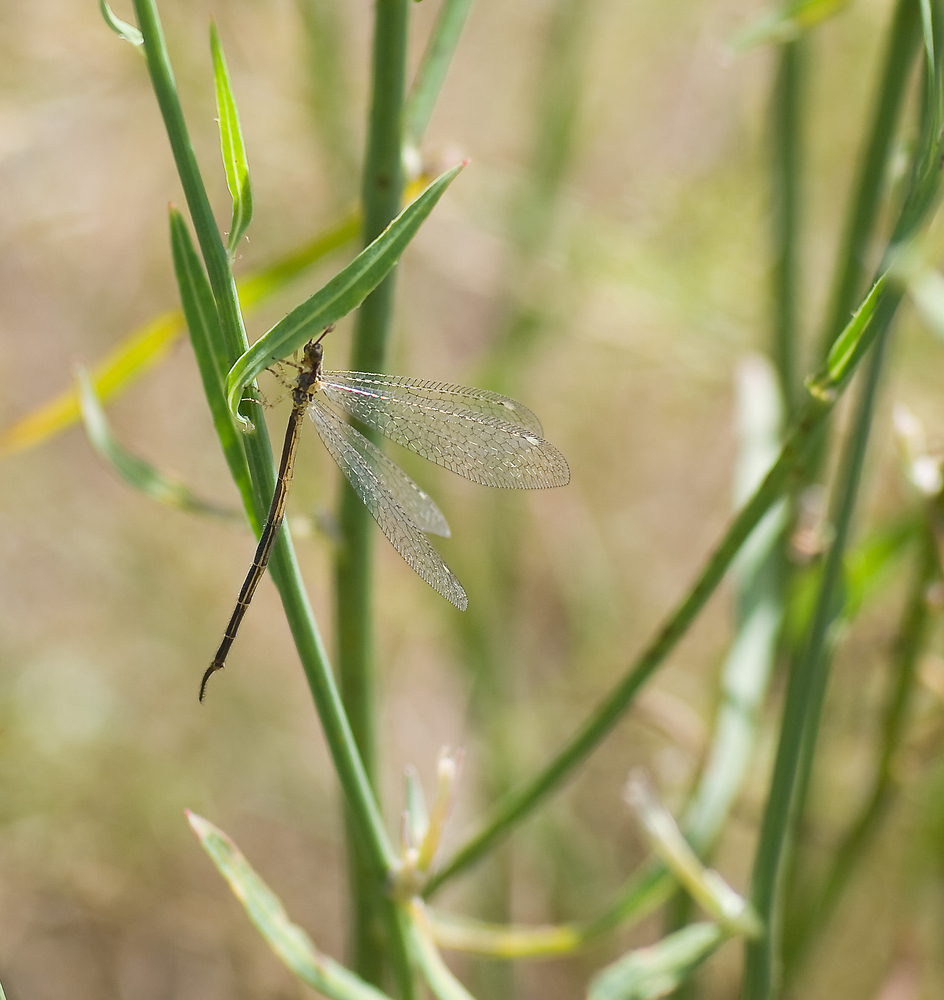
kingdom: Animalia
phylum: Arthropoda
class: Insecta
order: Neuroptera
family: Myrmeleontidae
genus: Macronemurus
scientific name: Macronemurus appendiculatus
